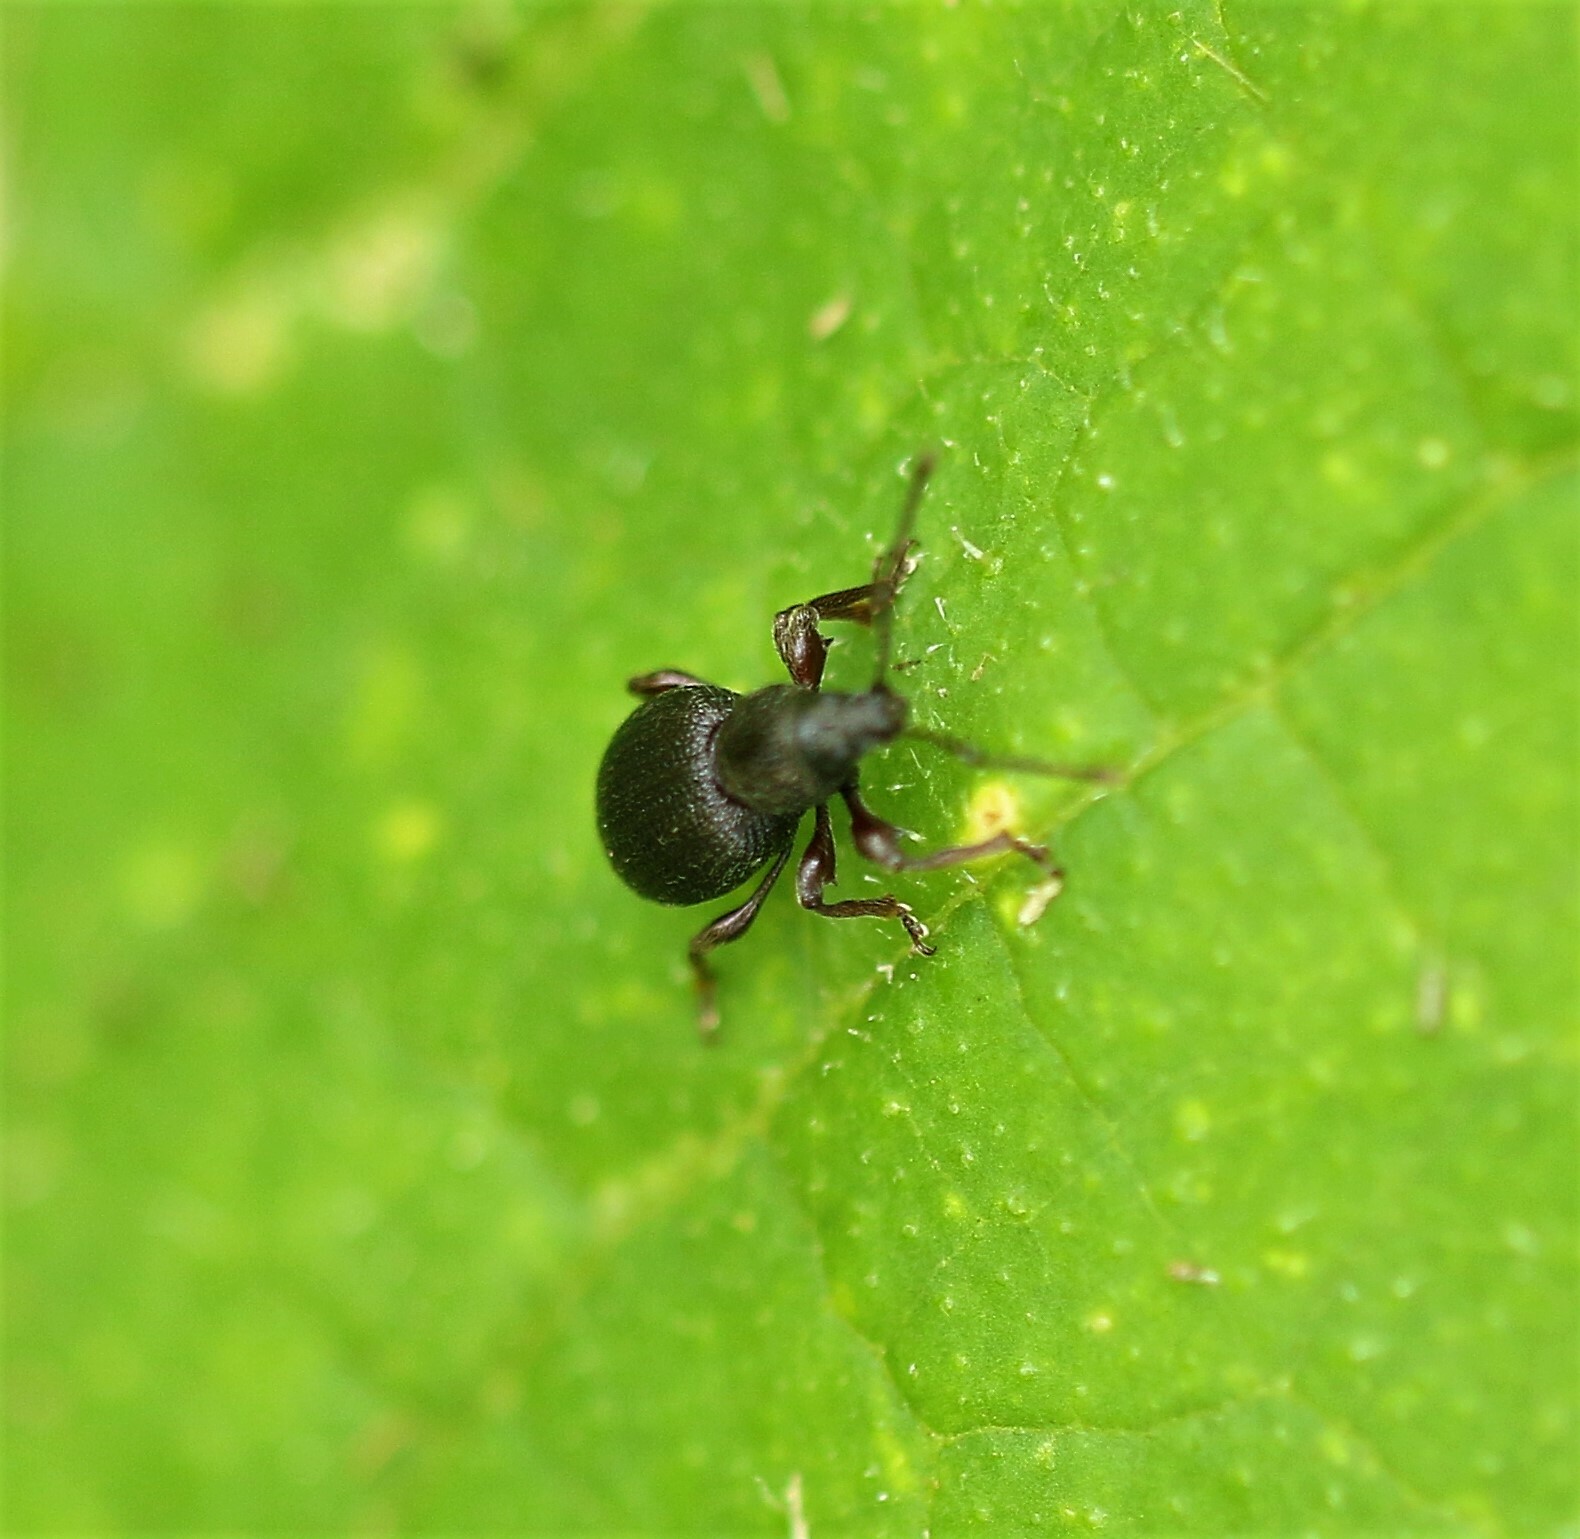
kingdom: Animalia
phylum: Arthropoda
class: Insecta
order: Coleoptera
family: Curculionidae
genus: Otiorhynchus
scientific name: Otiorhynchus ovatus
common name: Strawberry root weevil
